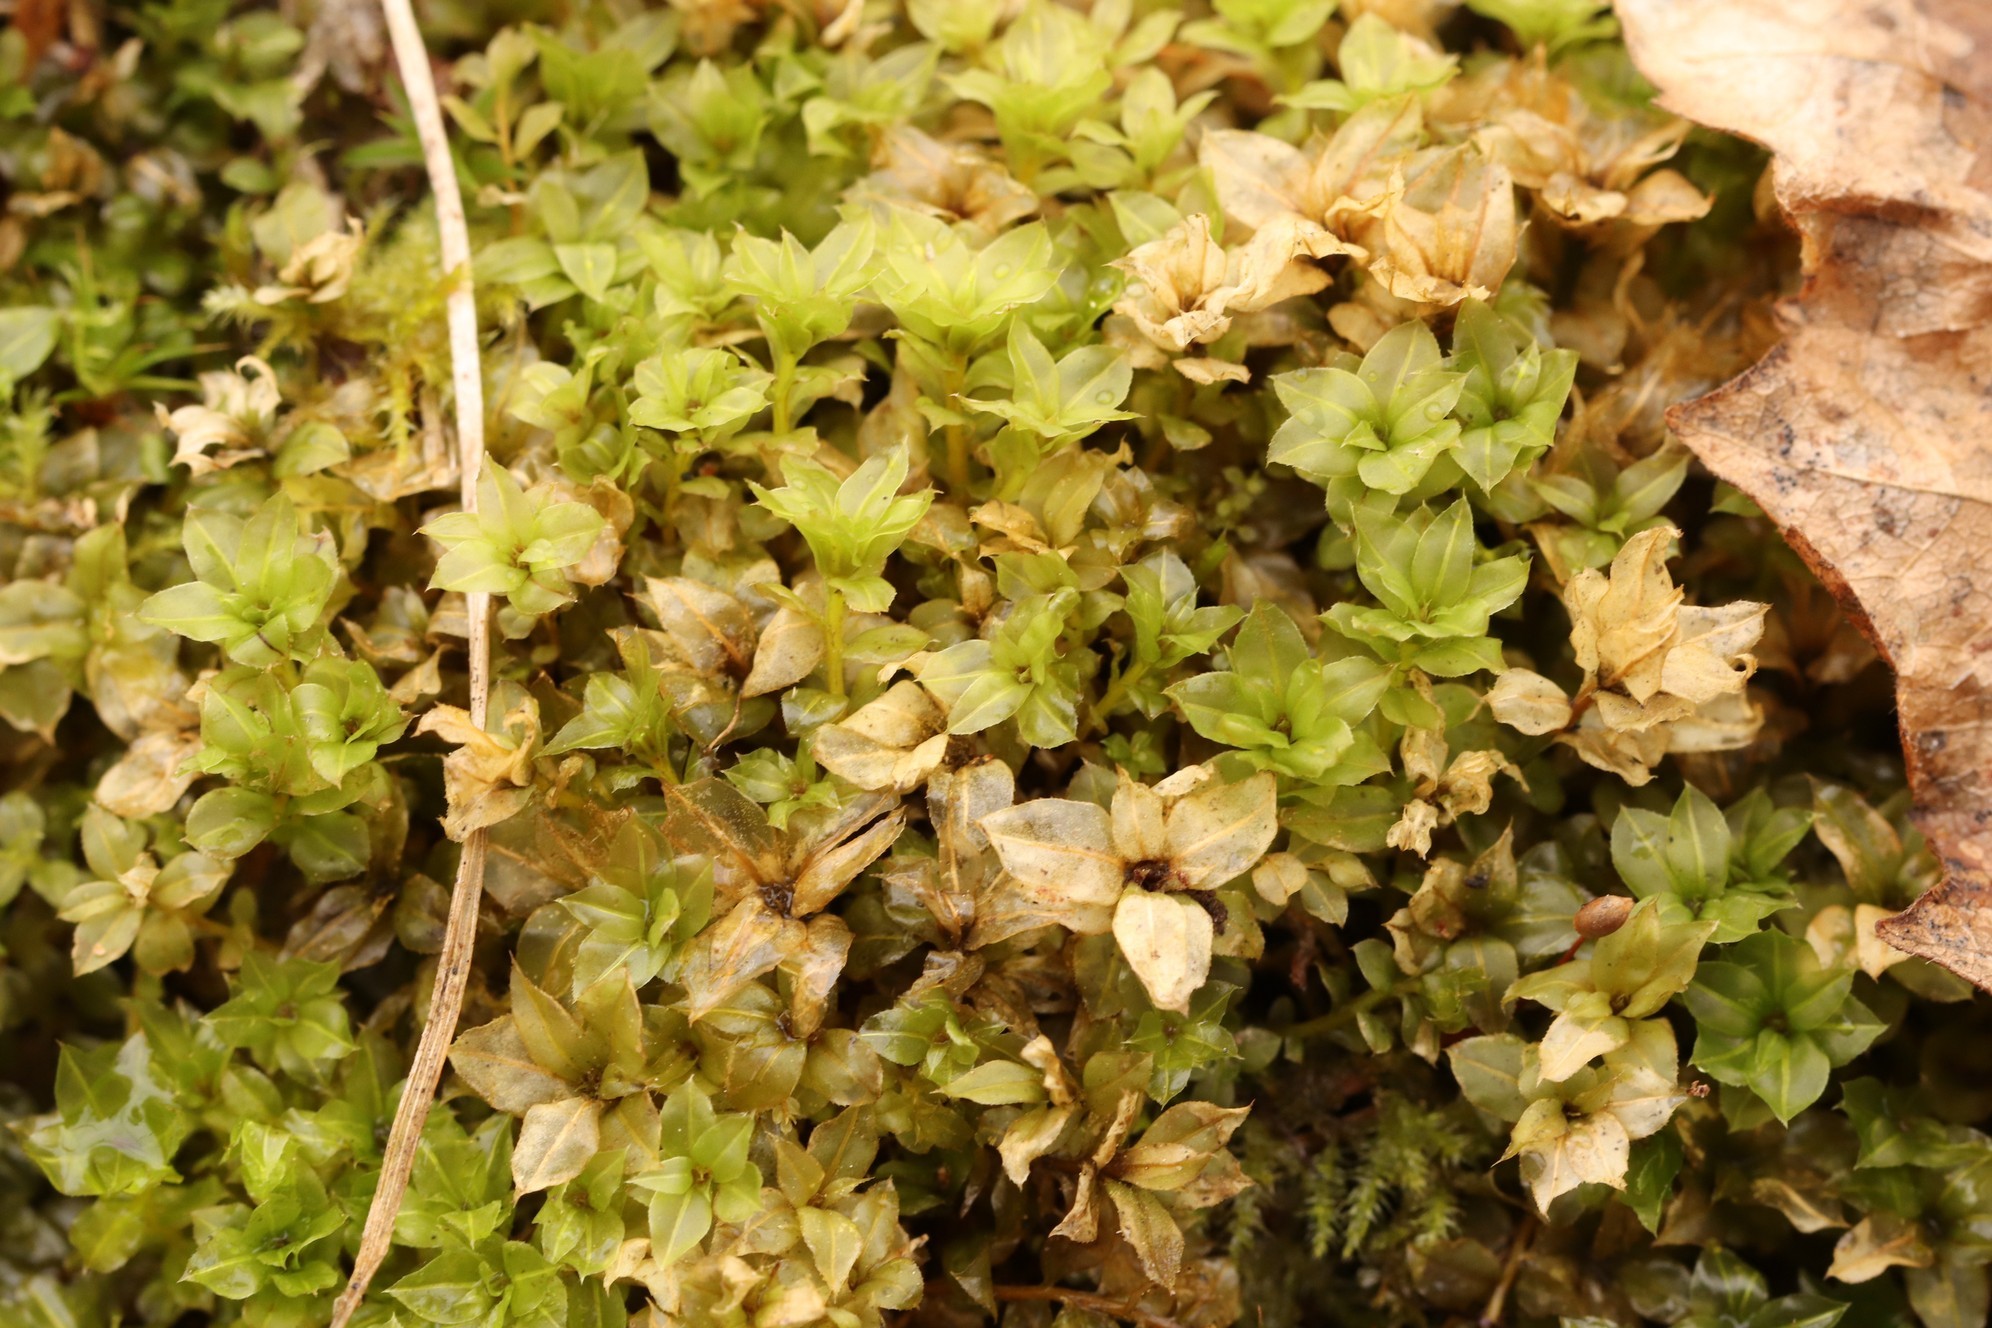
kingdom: Plantae
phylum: Bryophyta
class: Bryopsida
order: Bryales
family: Mniaceae
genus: Plagiomnium
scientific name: Plagiomnium ellipticum
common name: Marsh leafy moss
